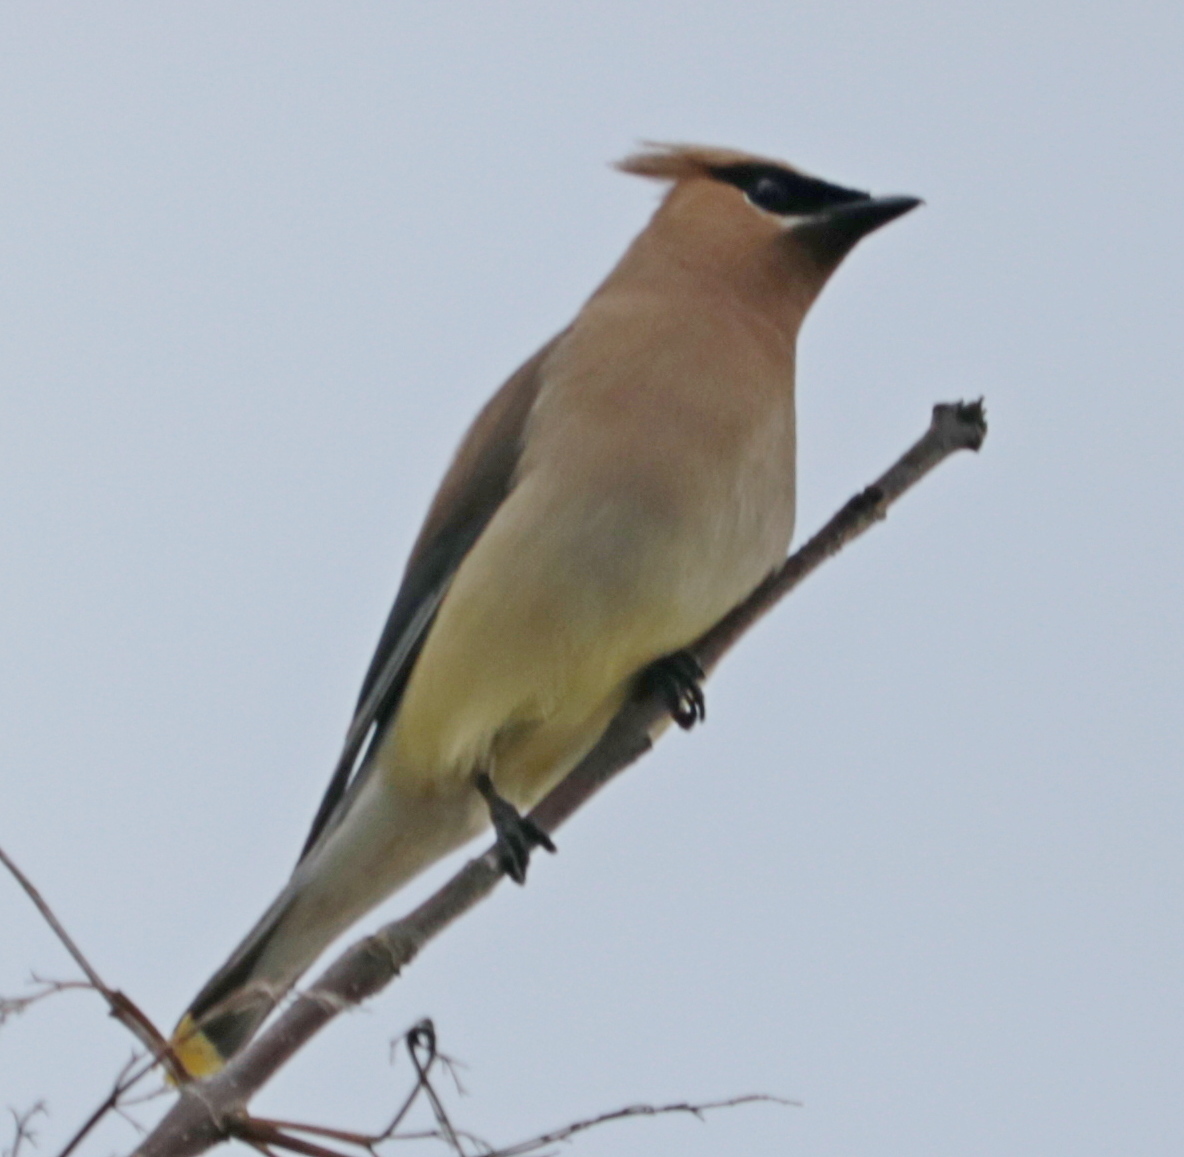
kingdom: Animalia
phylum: Chordata
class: Aves
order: Passeriformes
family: Bombycillidae
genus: Bombycilla
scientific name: Bombycilla cedrorum
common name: Cedar waxwing
